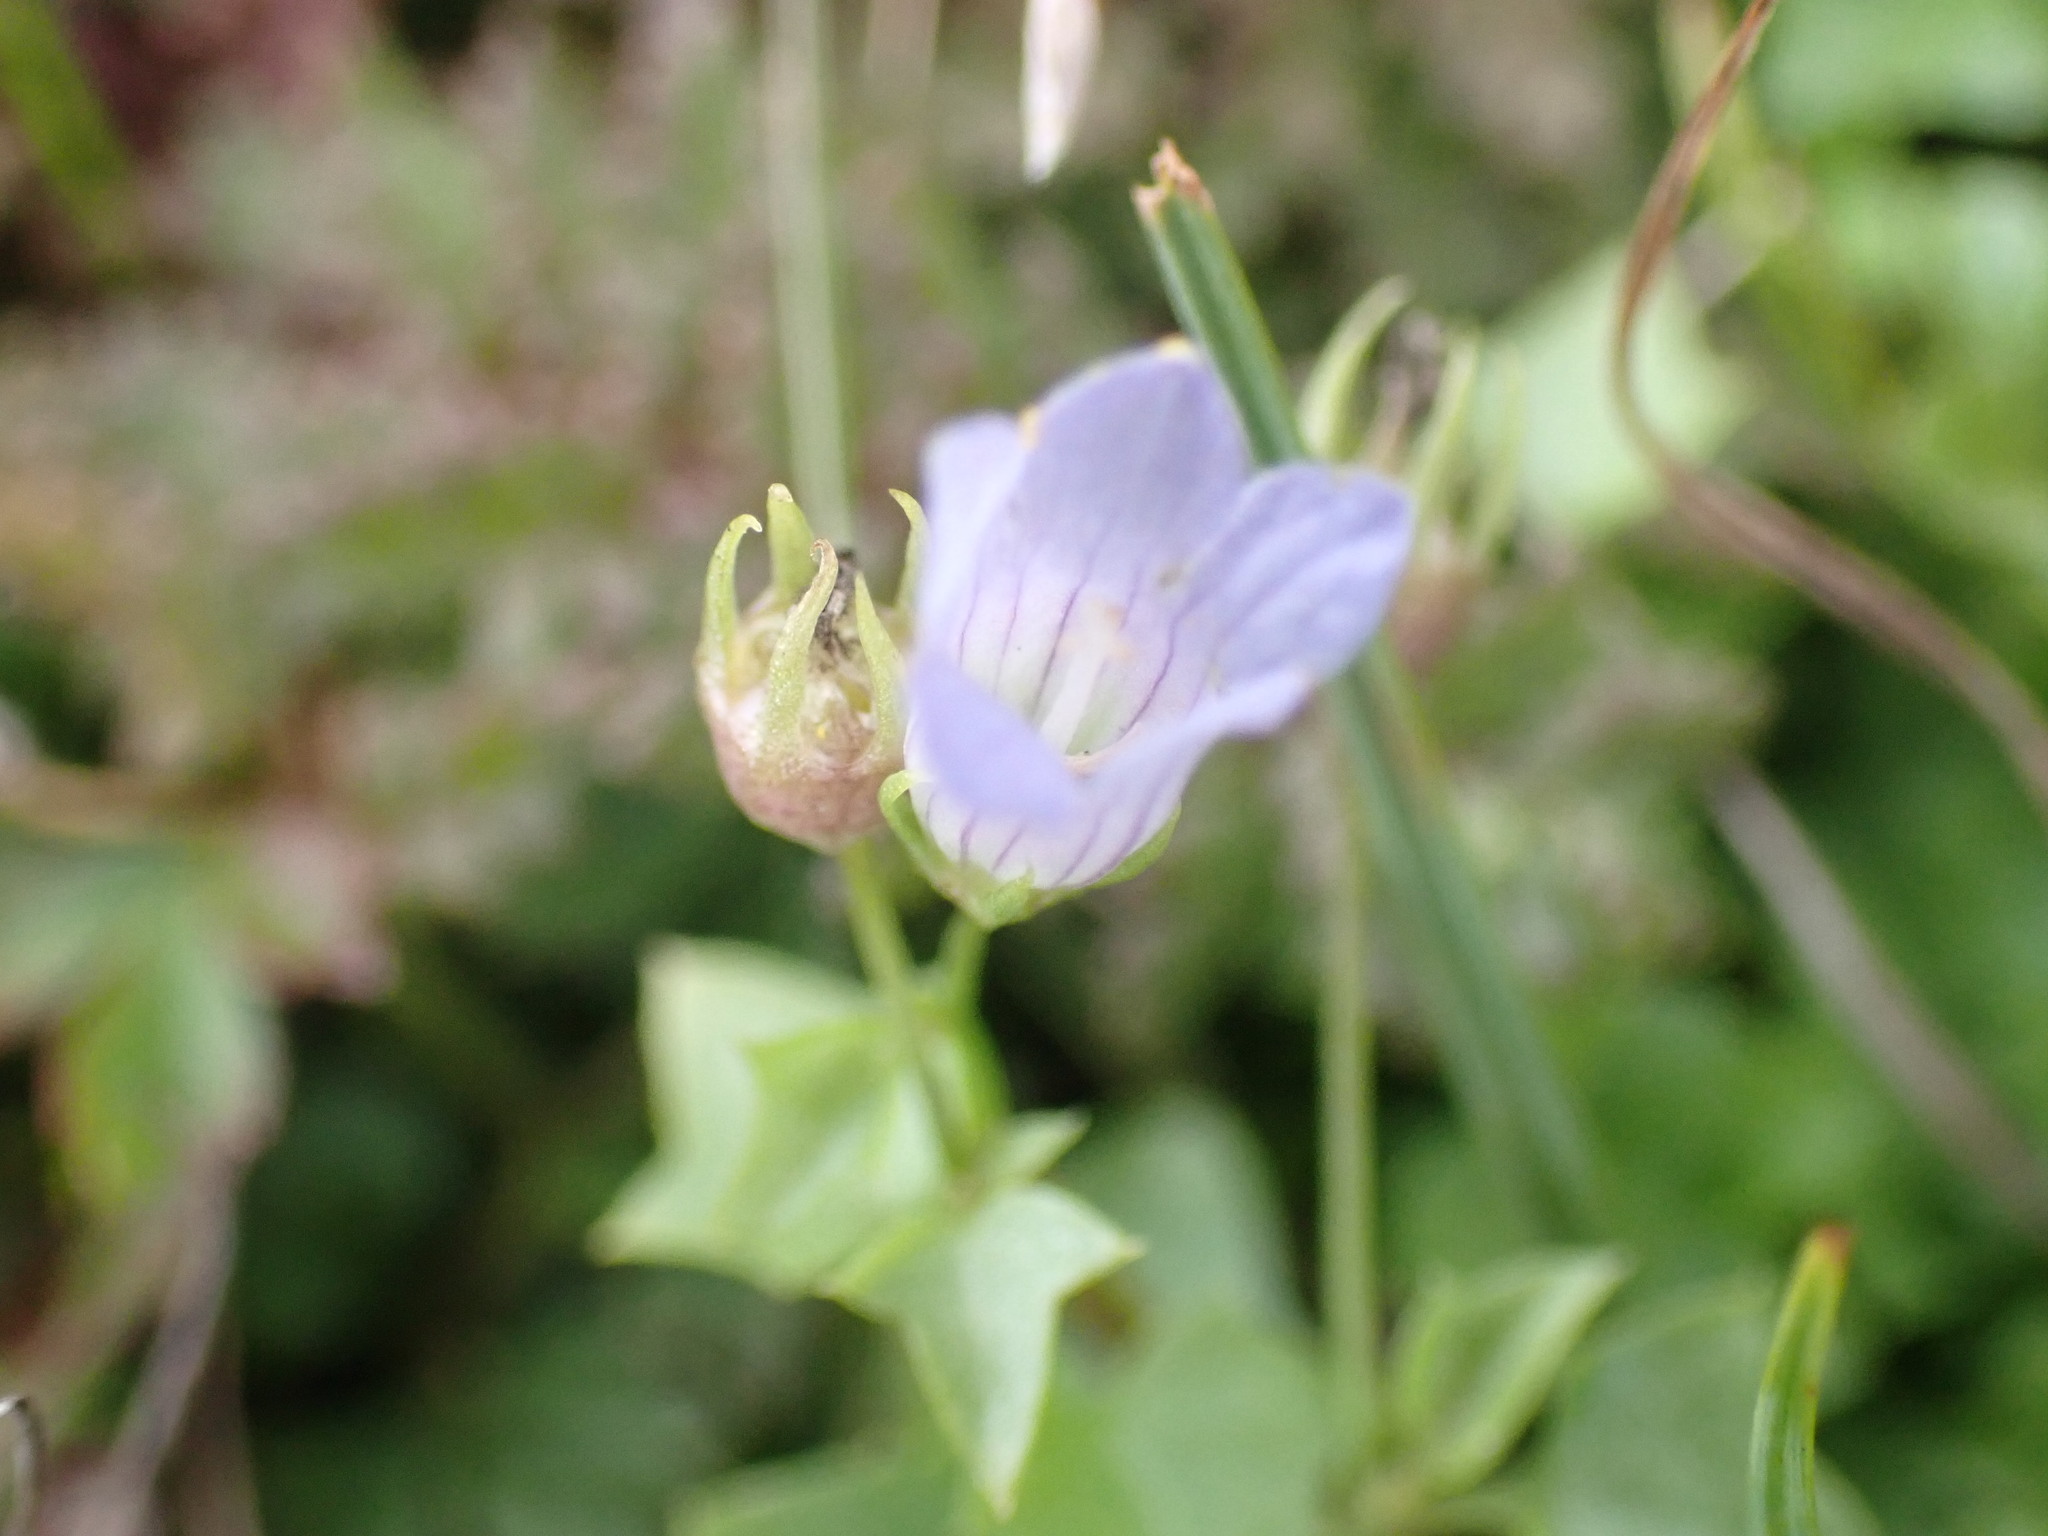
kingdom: Plantae
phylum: Tracheophyta
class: Magnoliopsida
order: Asterales
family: Campanulaceae
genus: Hesperocodon
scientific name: Hesperocodon hederaceus
